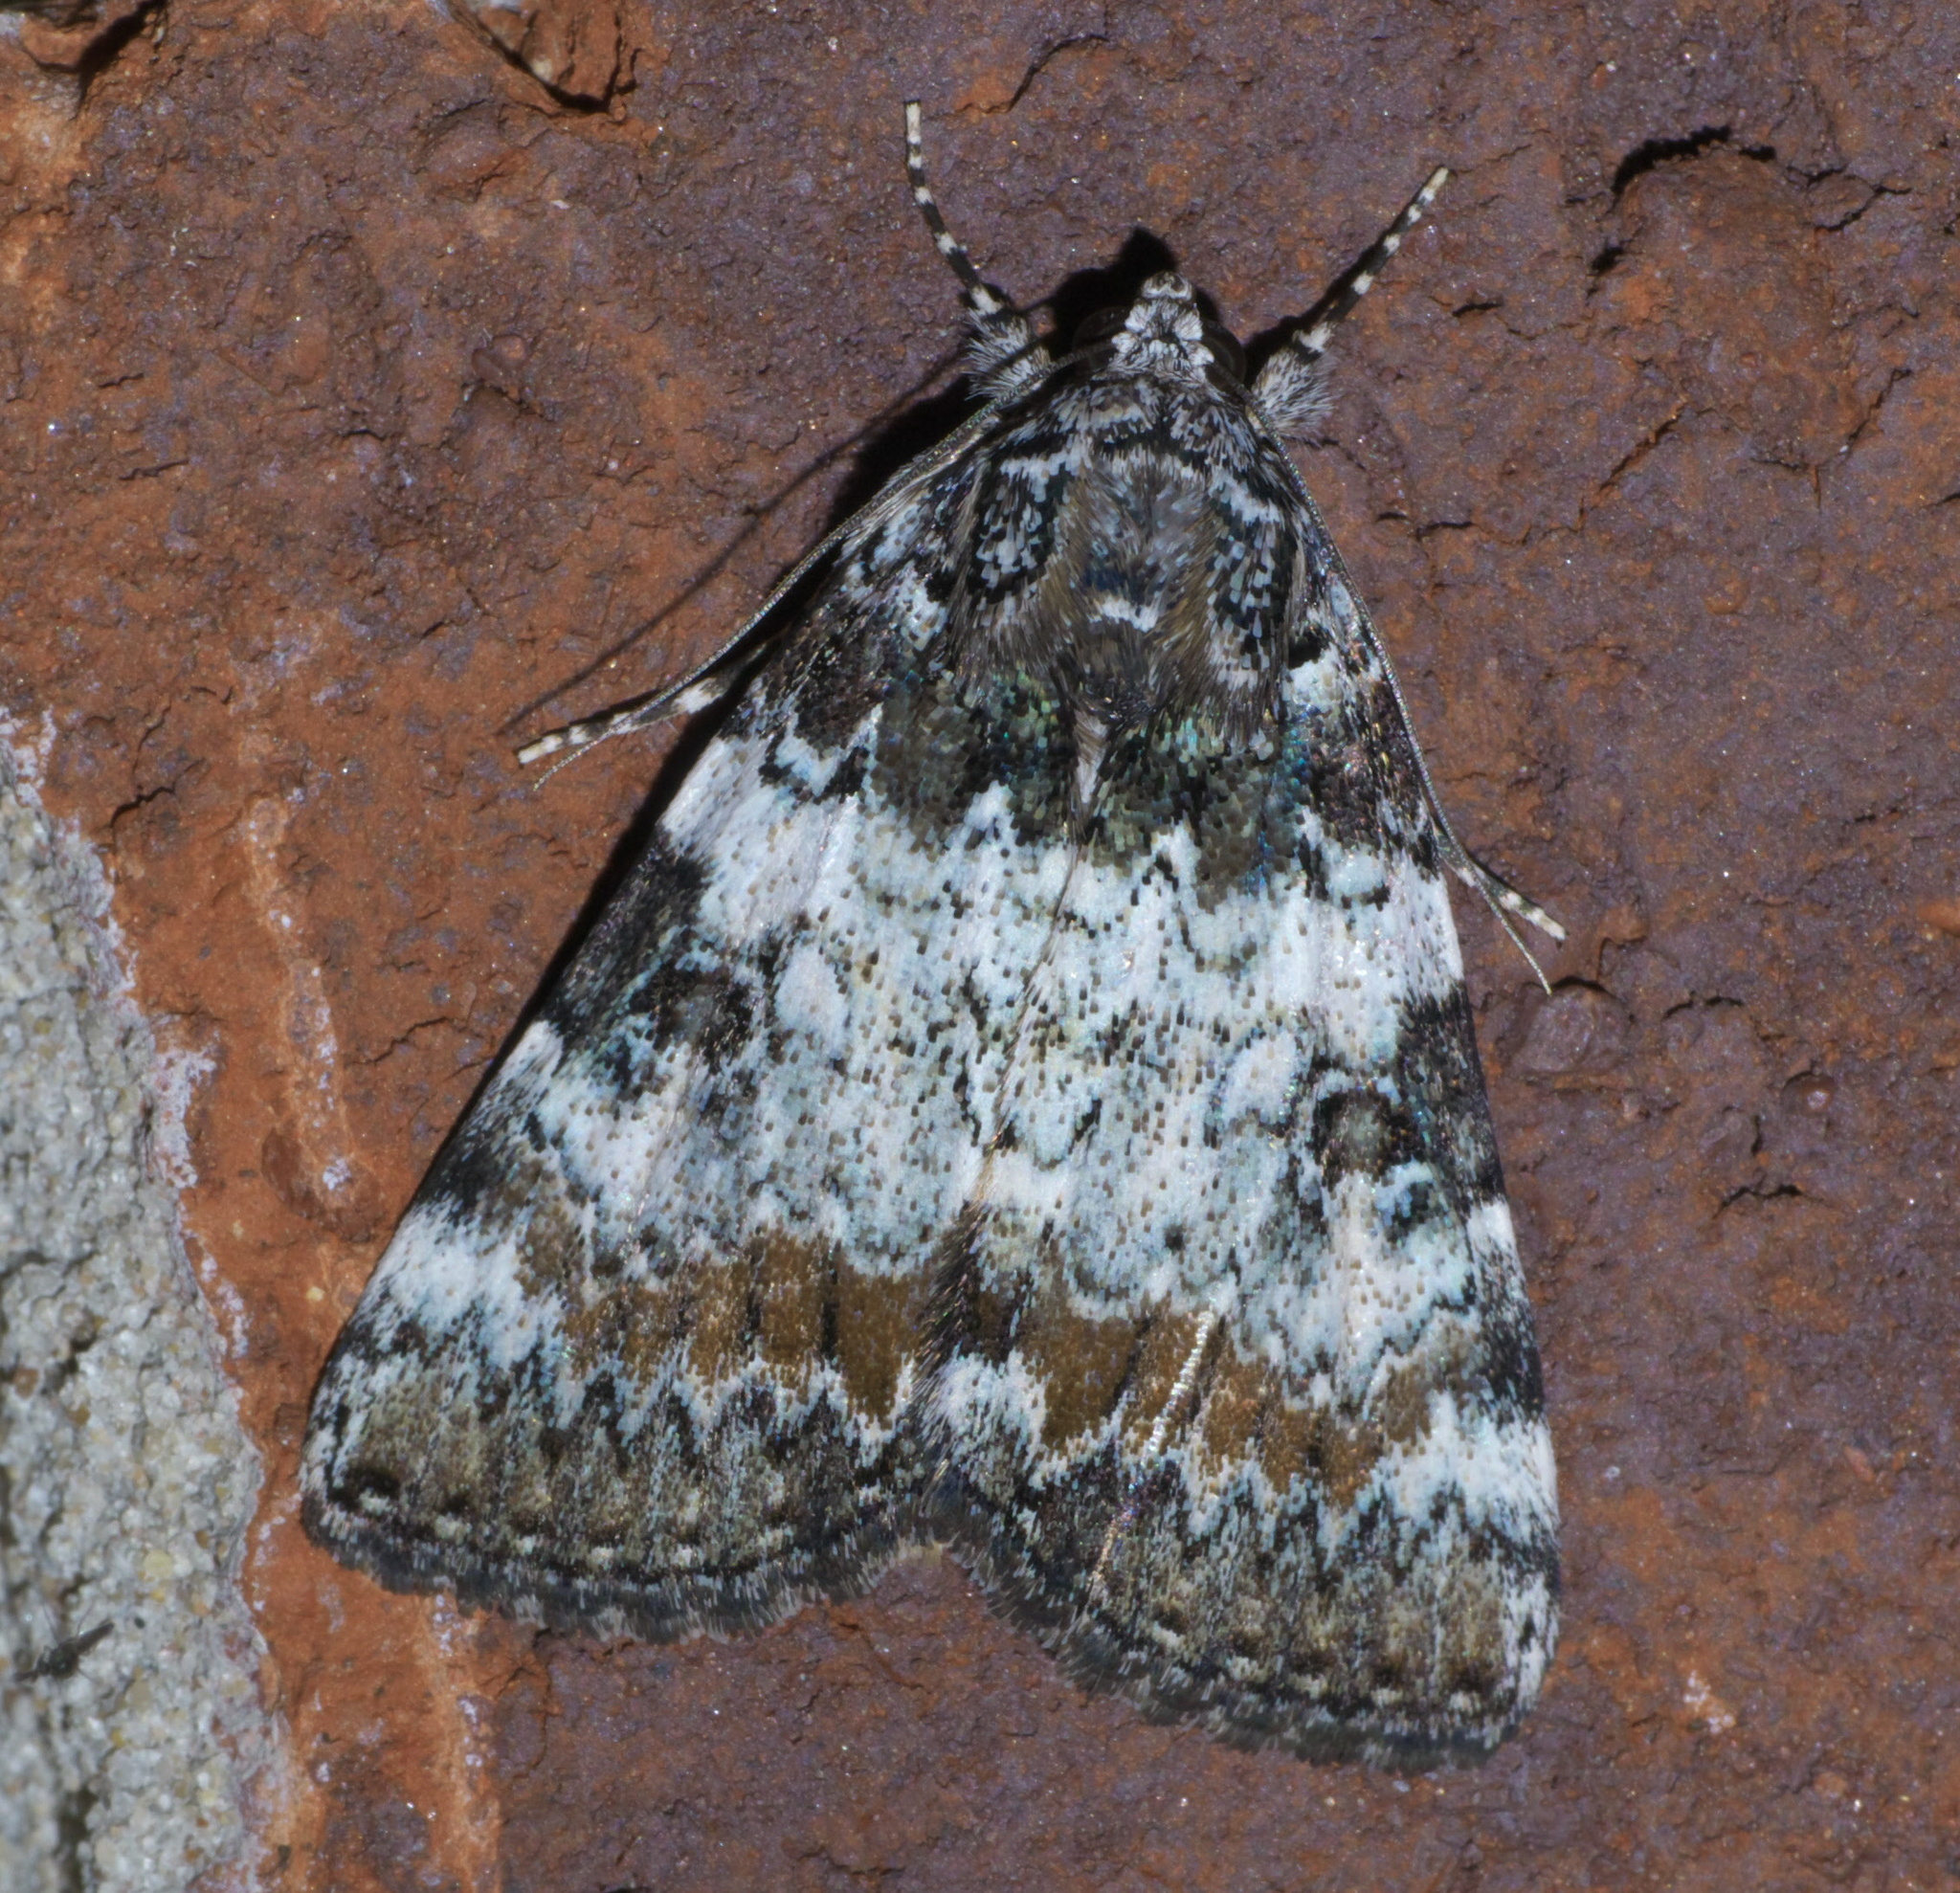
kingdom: Animalia
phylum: Arthropoda
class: Insecta
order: Lepidoptera
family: Erebidae
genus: Catocala
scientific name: Catocala connubialis
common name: Connubial underwing
